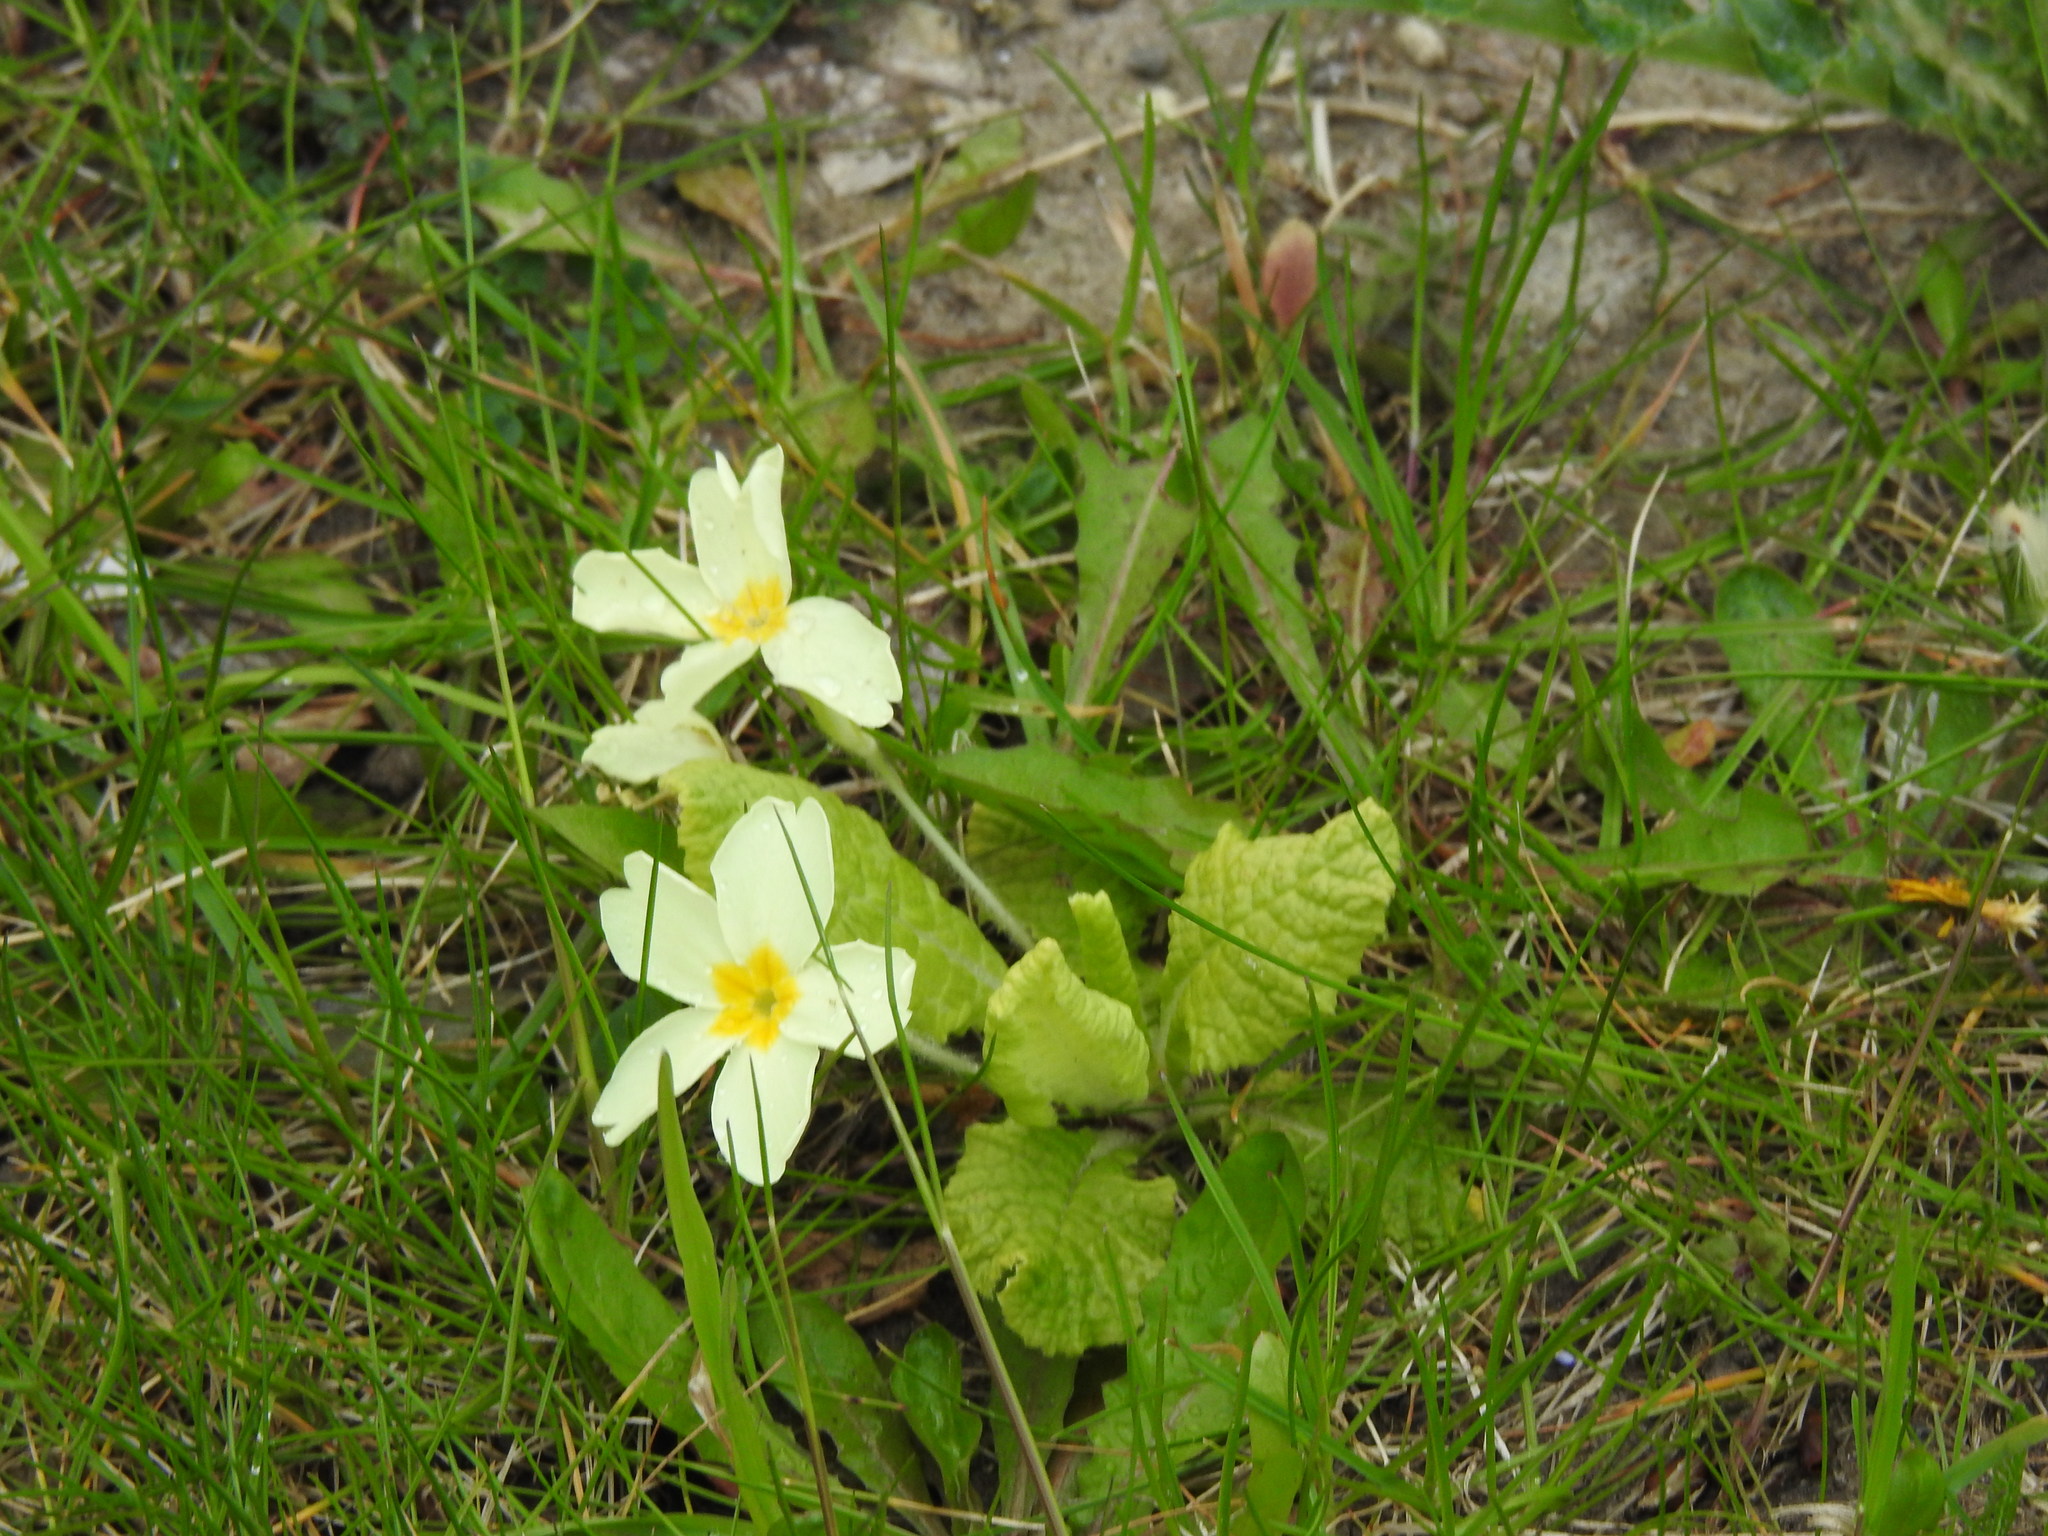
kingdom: Plantae
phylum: Tracheophyta
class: Magnoliopsida
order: Ericales
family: Primulaceae
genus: Primula
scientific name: Primula vulgaris
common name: Primrose
